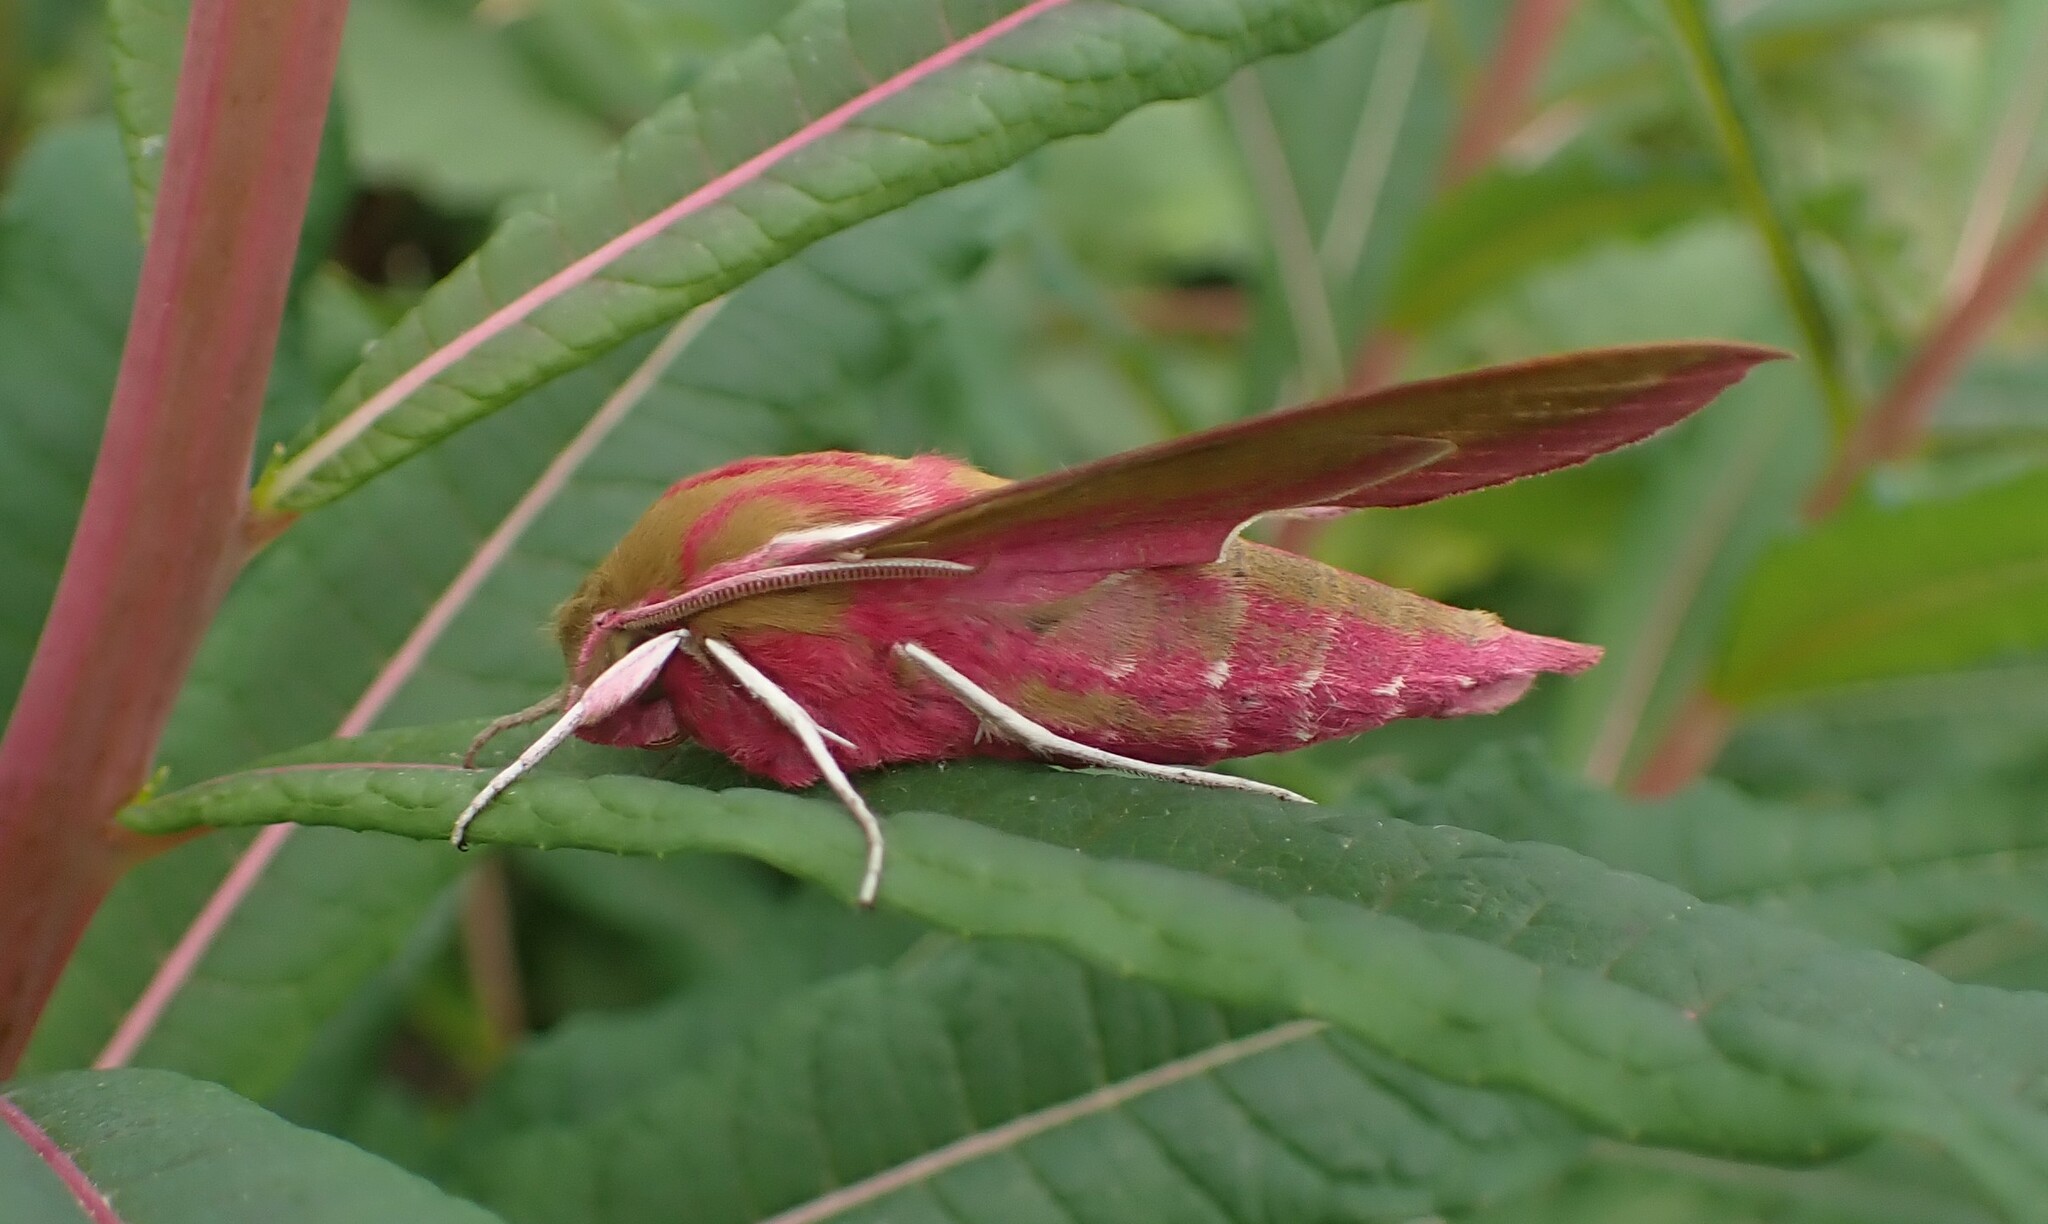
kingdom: Animalia
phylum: Arthropoda
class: Insecta
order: Lepidoptera
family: Sphingidae
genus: Deilephila
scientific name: Deilephila elpenor
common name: Elephant hawk-moth
